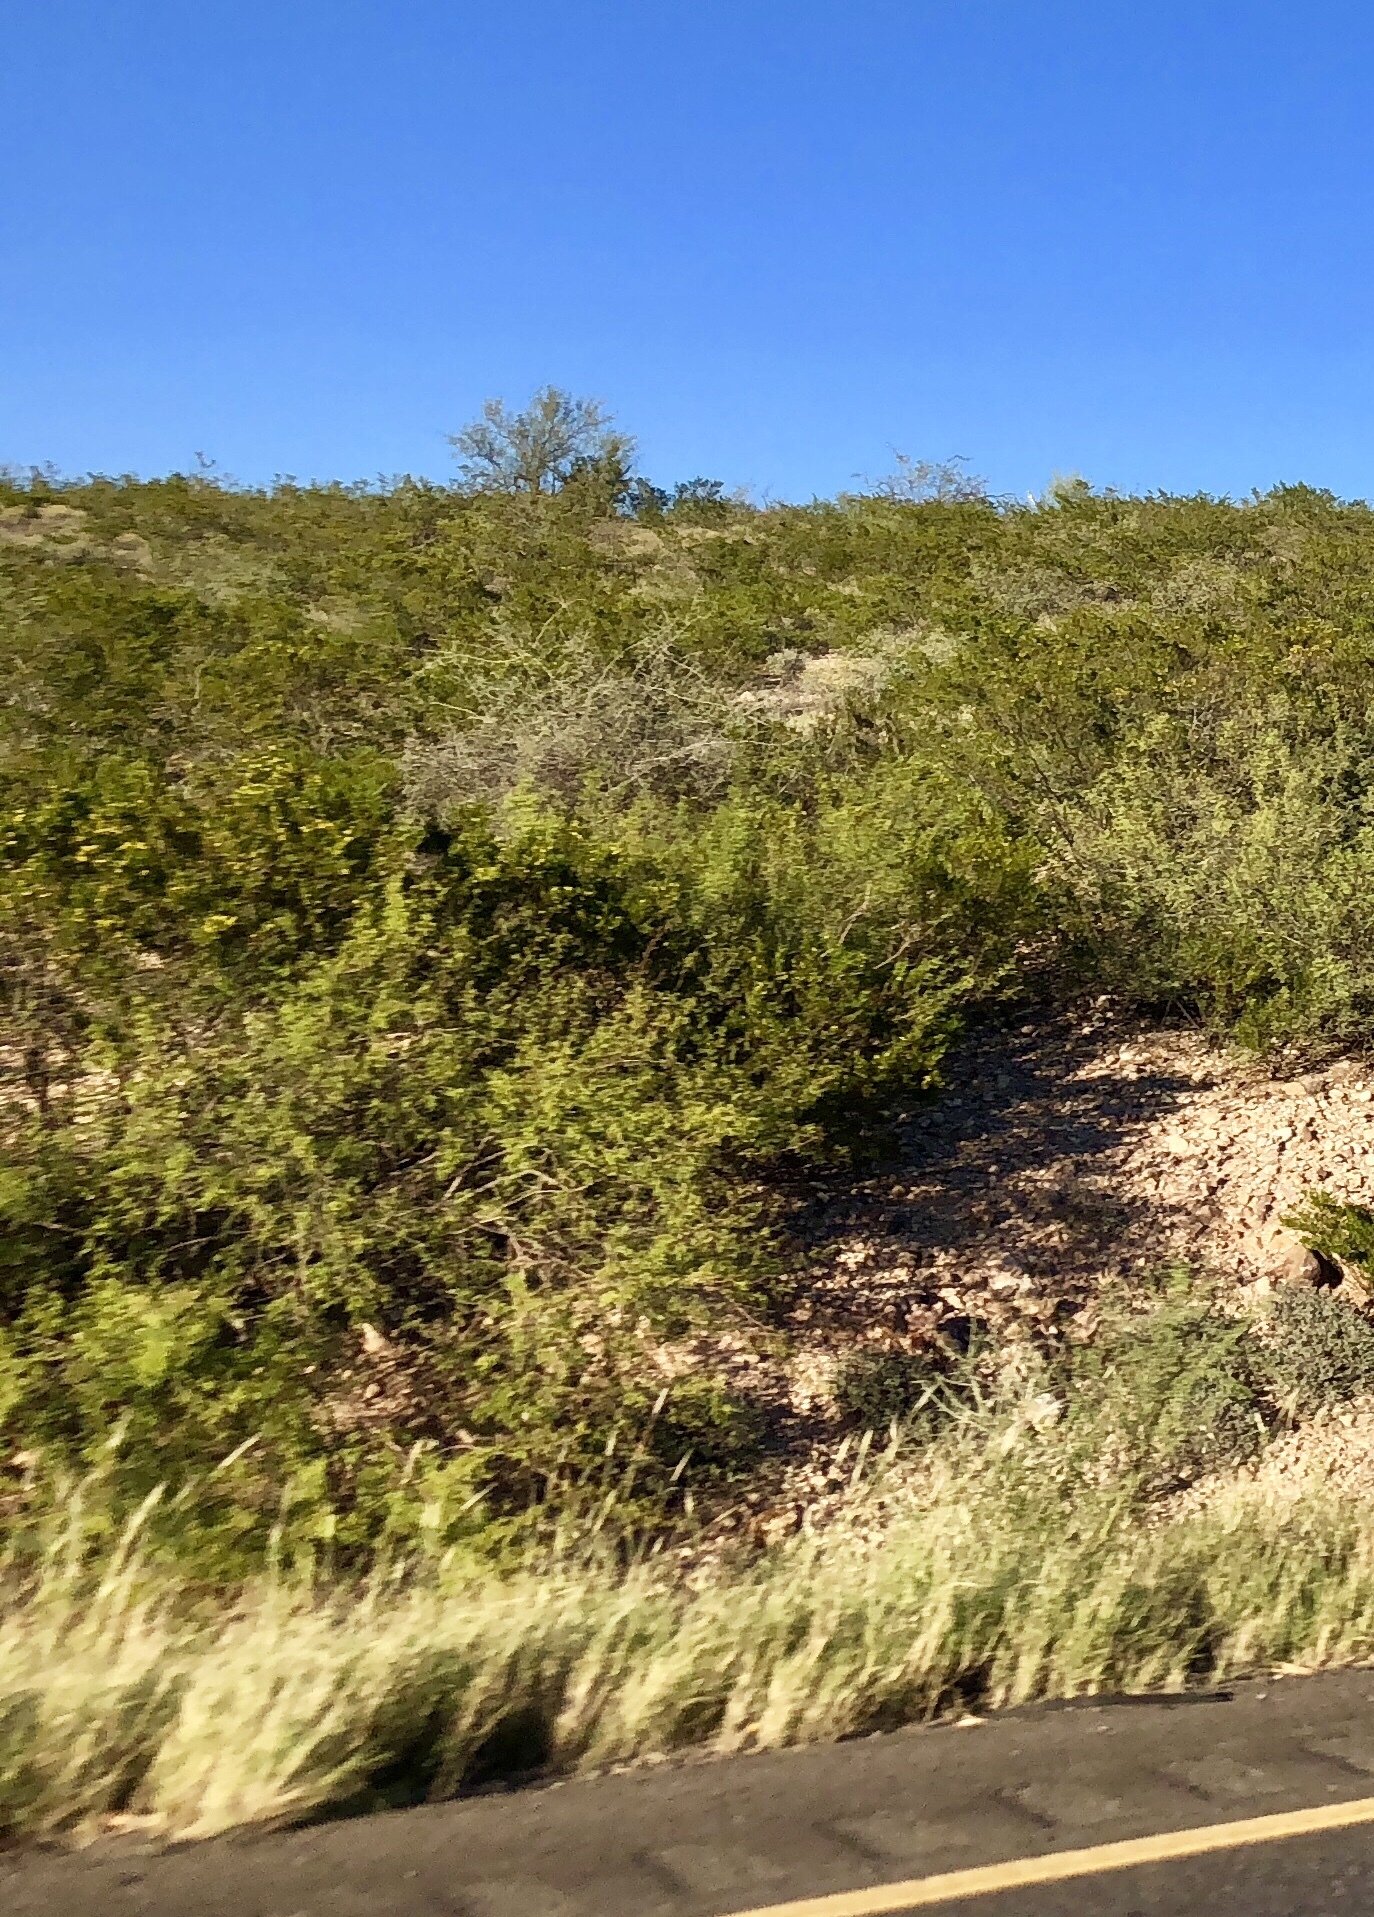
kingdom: Plantae
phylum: Tracheophyta
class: Magnoliopsida
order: Zygophyllales
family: Zygophyllaceae
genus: Larrea
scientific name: Larrea tridentata
